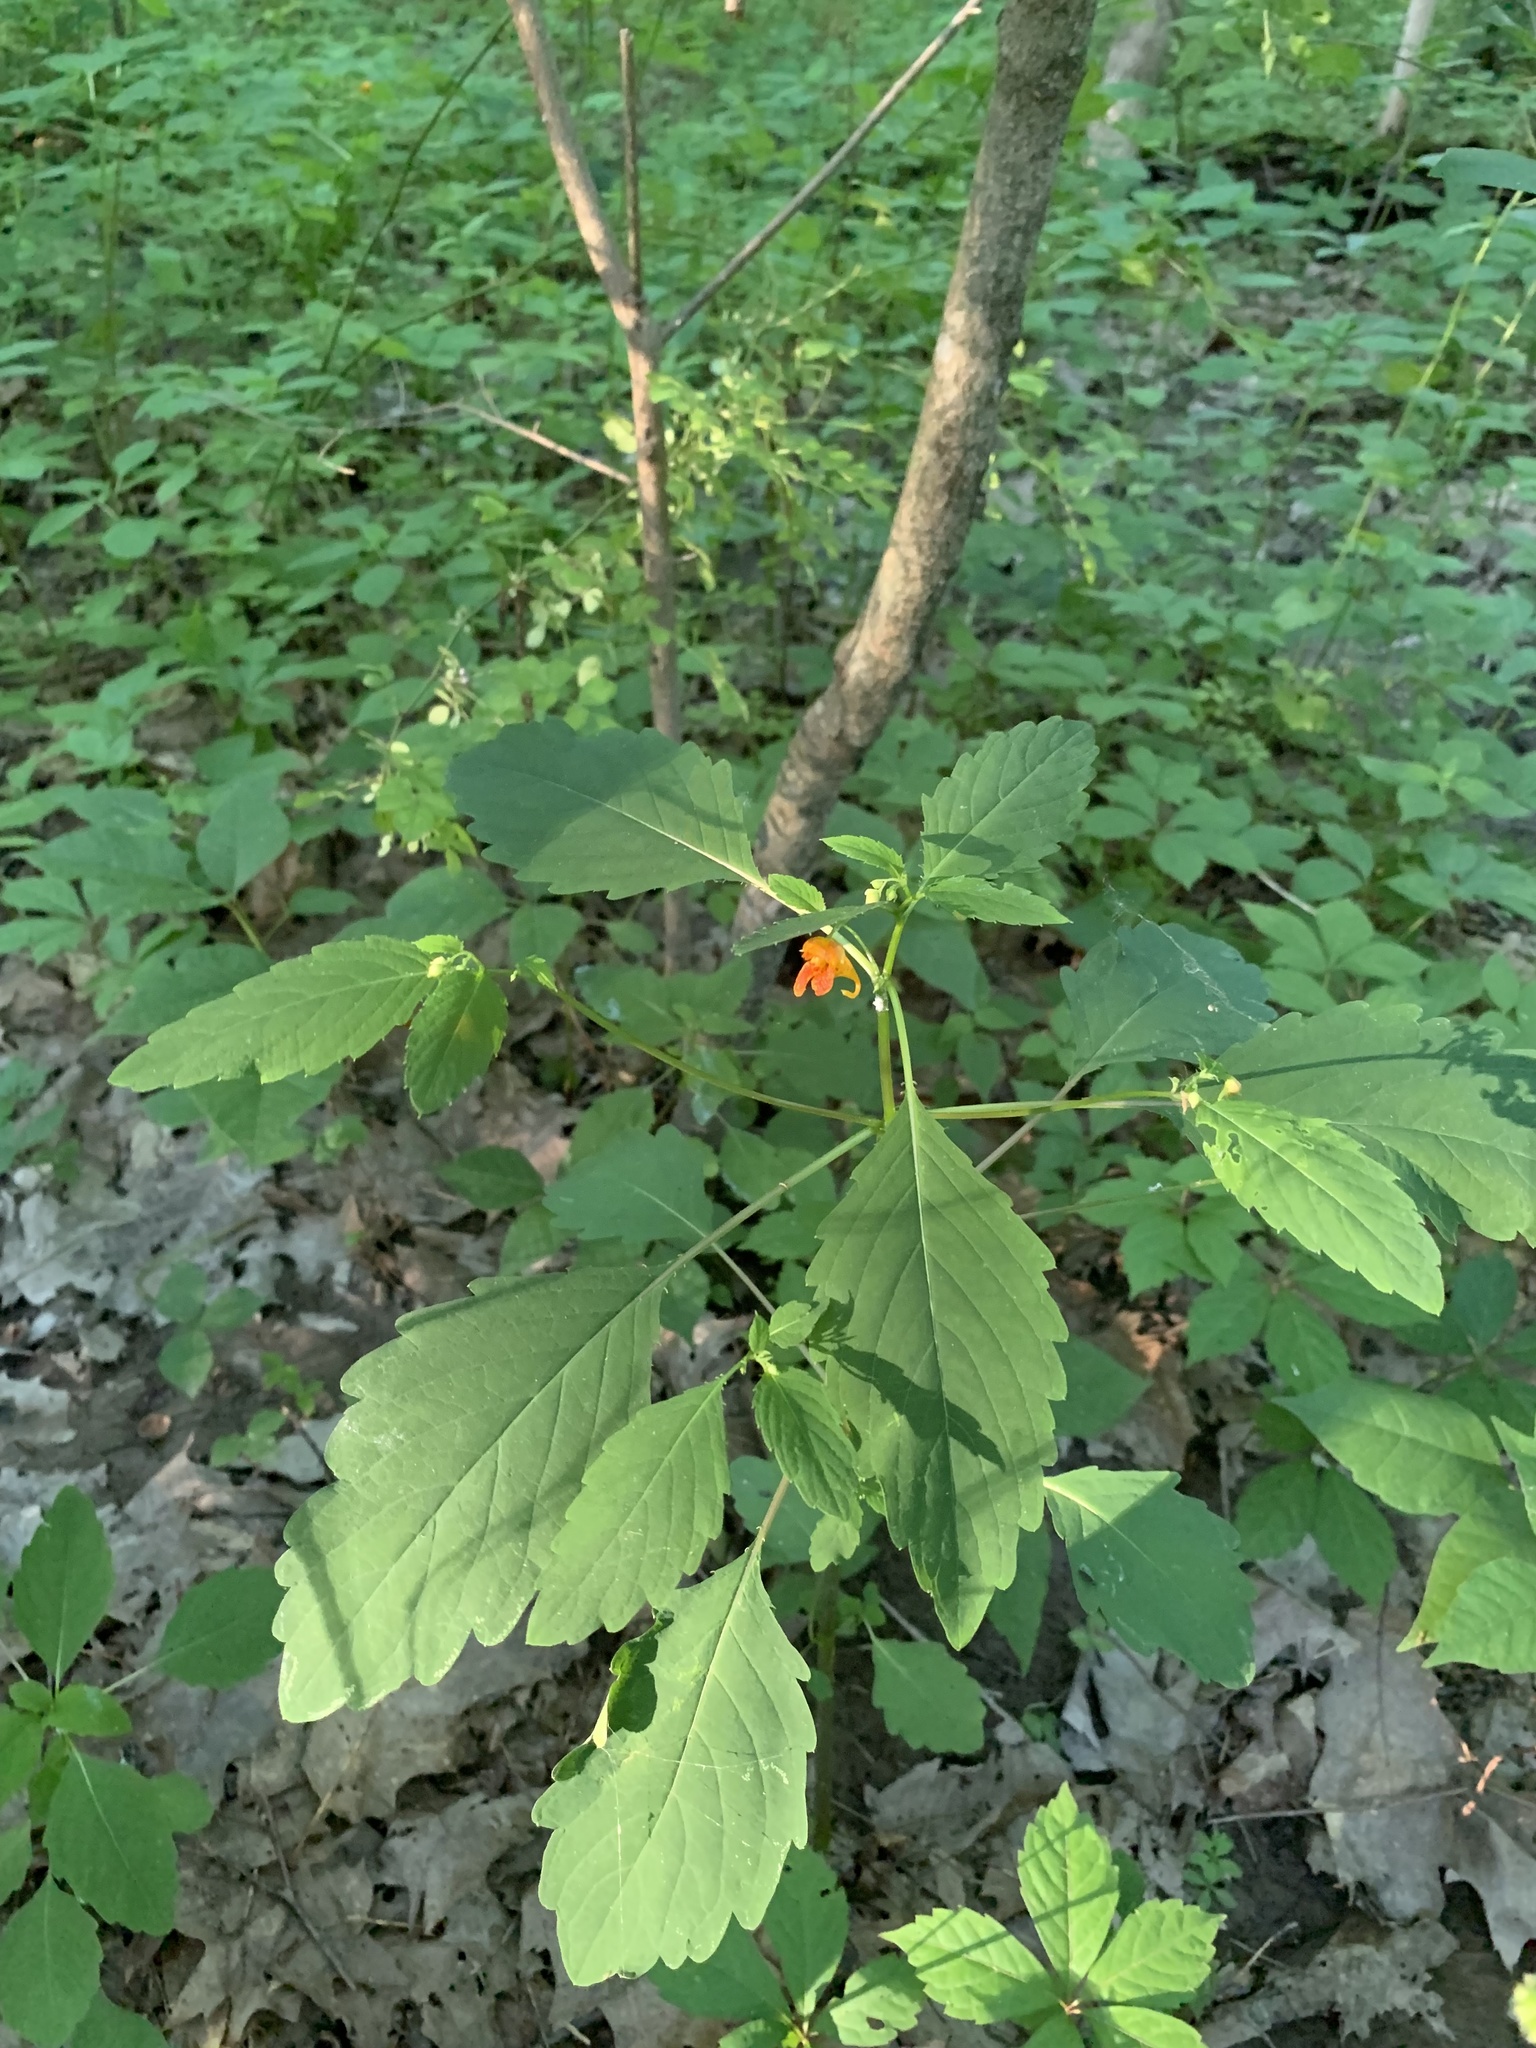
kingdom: Plantae
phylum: Tracheophyta
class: Magnoliopsida
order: Ericales
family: Balsaminaceae
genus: Impatiens
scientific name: Impatiens capensis
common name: Orange balsam
